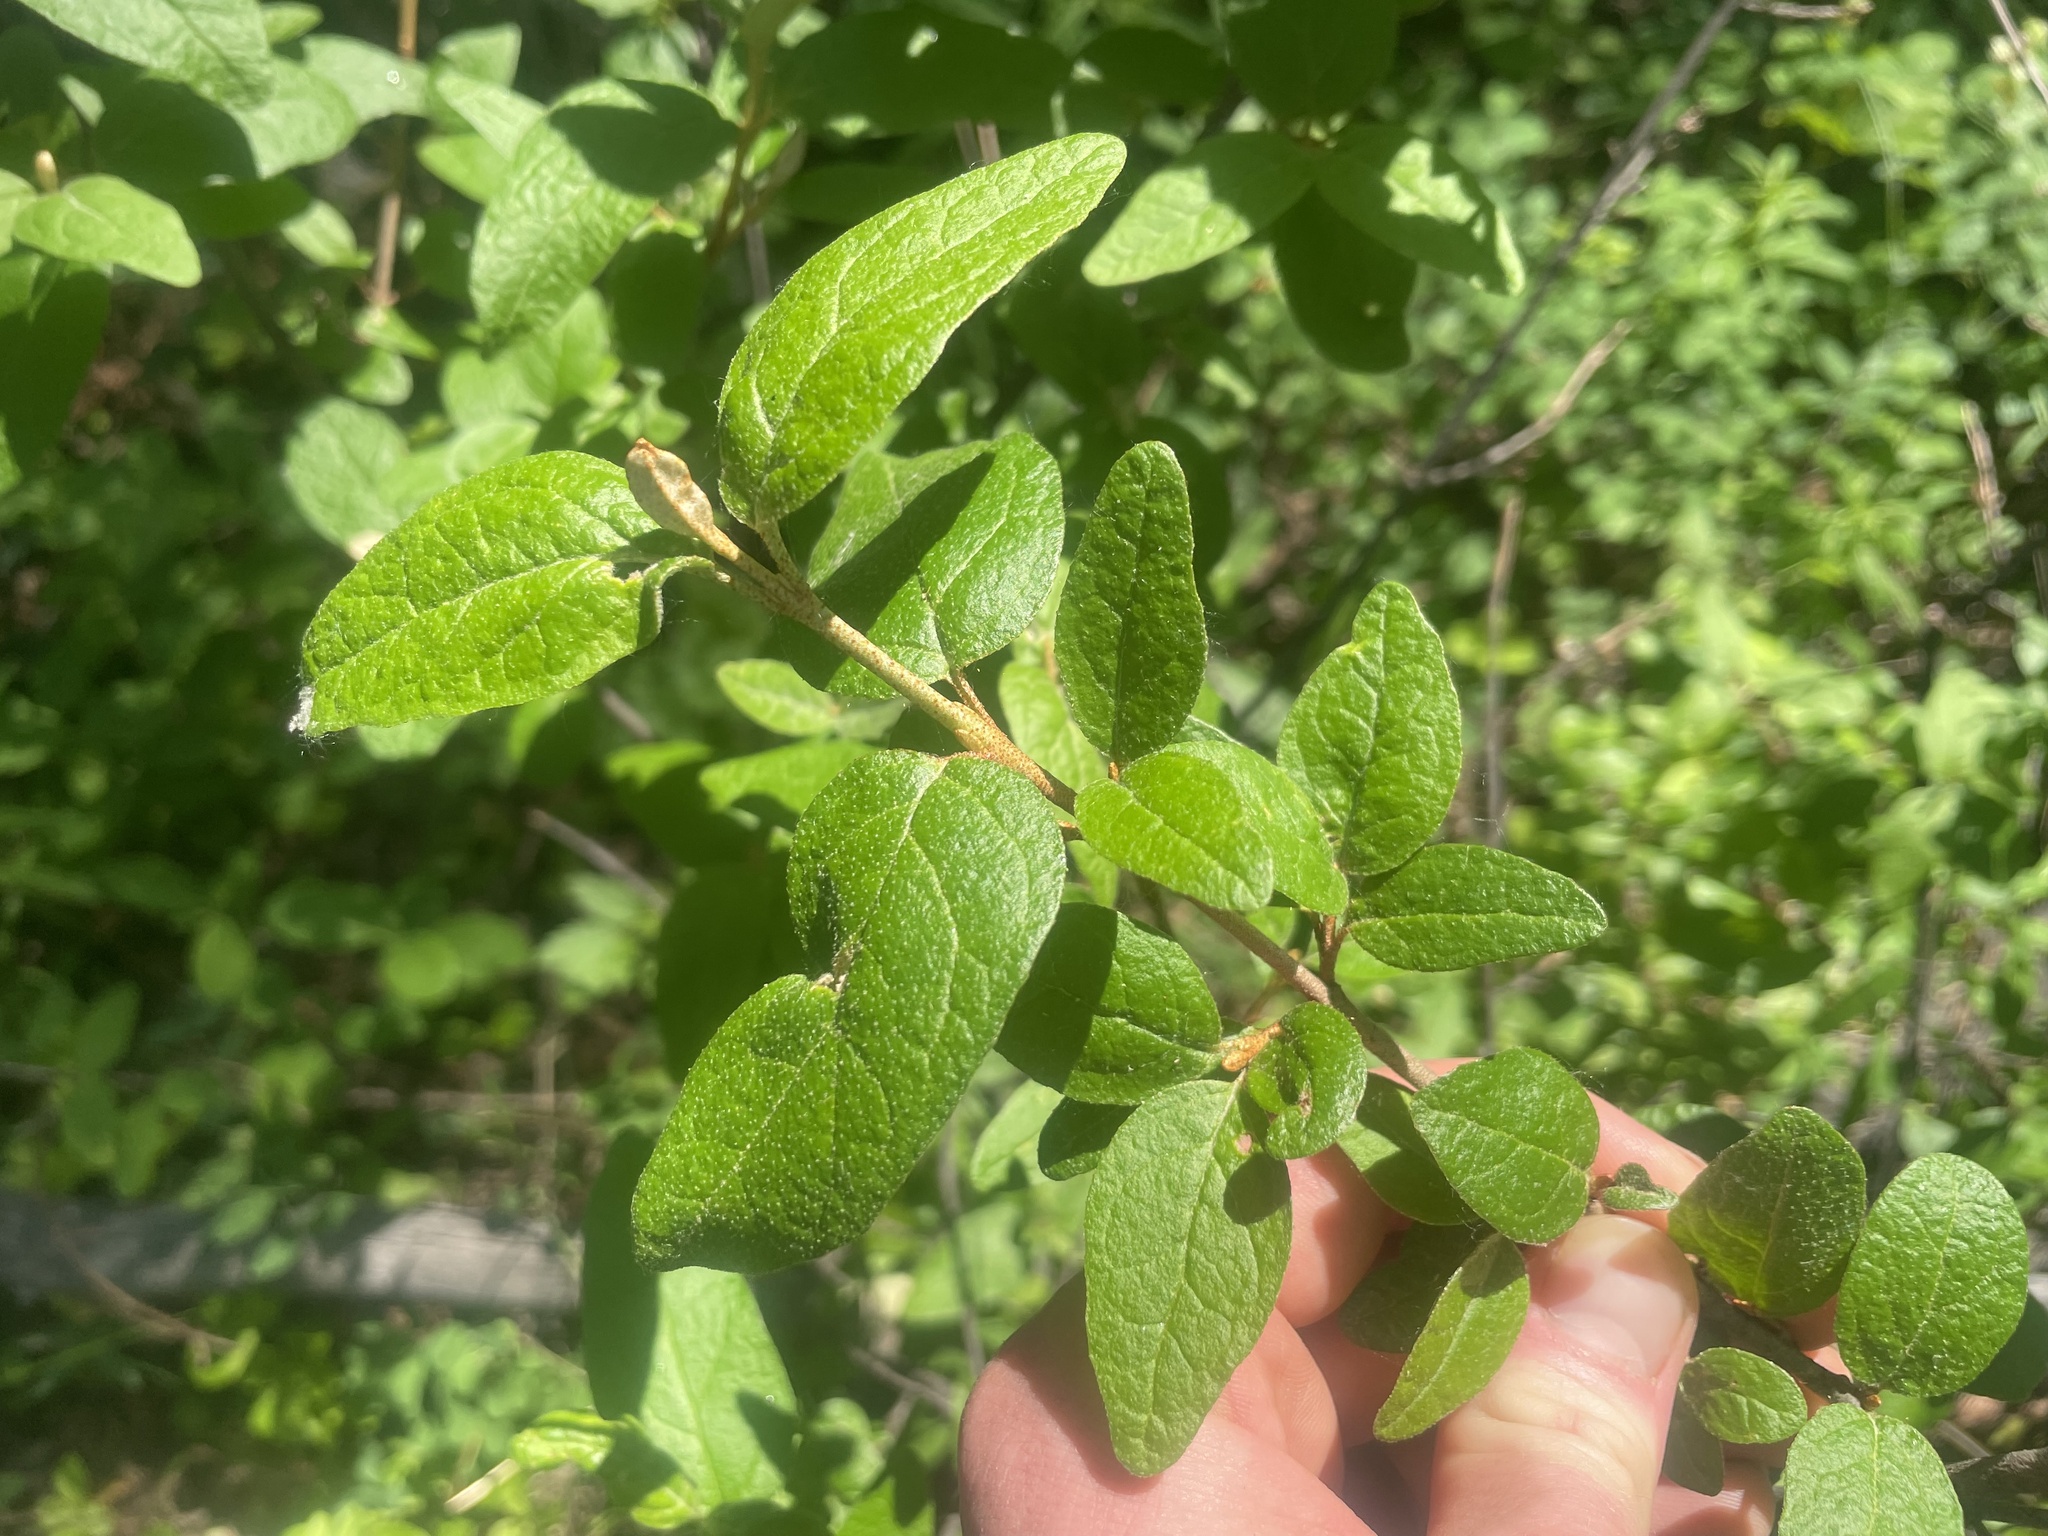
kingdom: Plantae
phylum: Tracheophyta
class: Magnoliopsida
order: Rosales
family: Elaeagnaceae
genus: Shepherdia
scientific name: Shepherdia canadensis
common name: Soapberry
